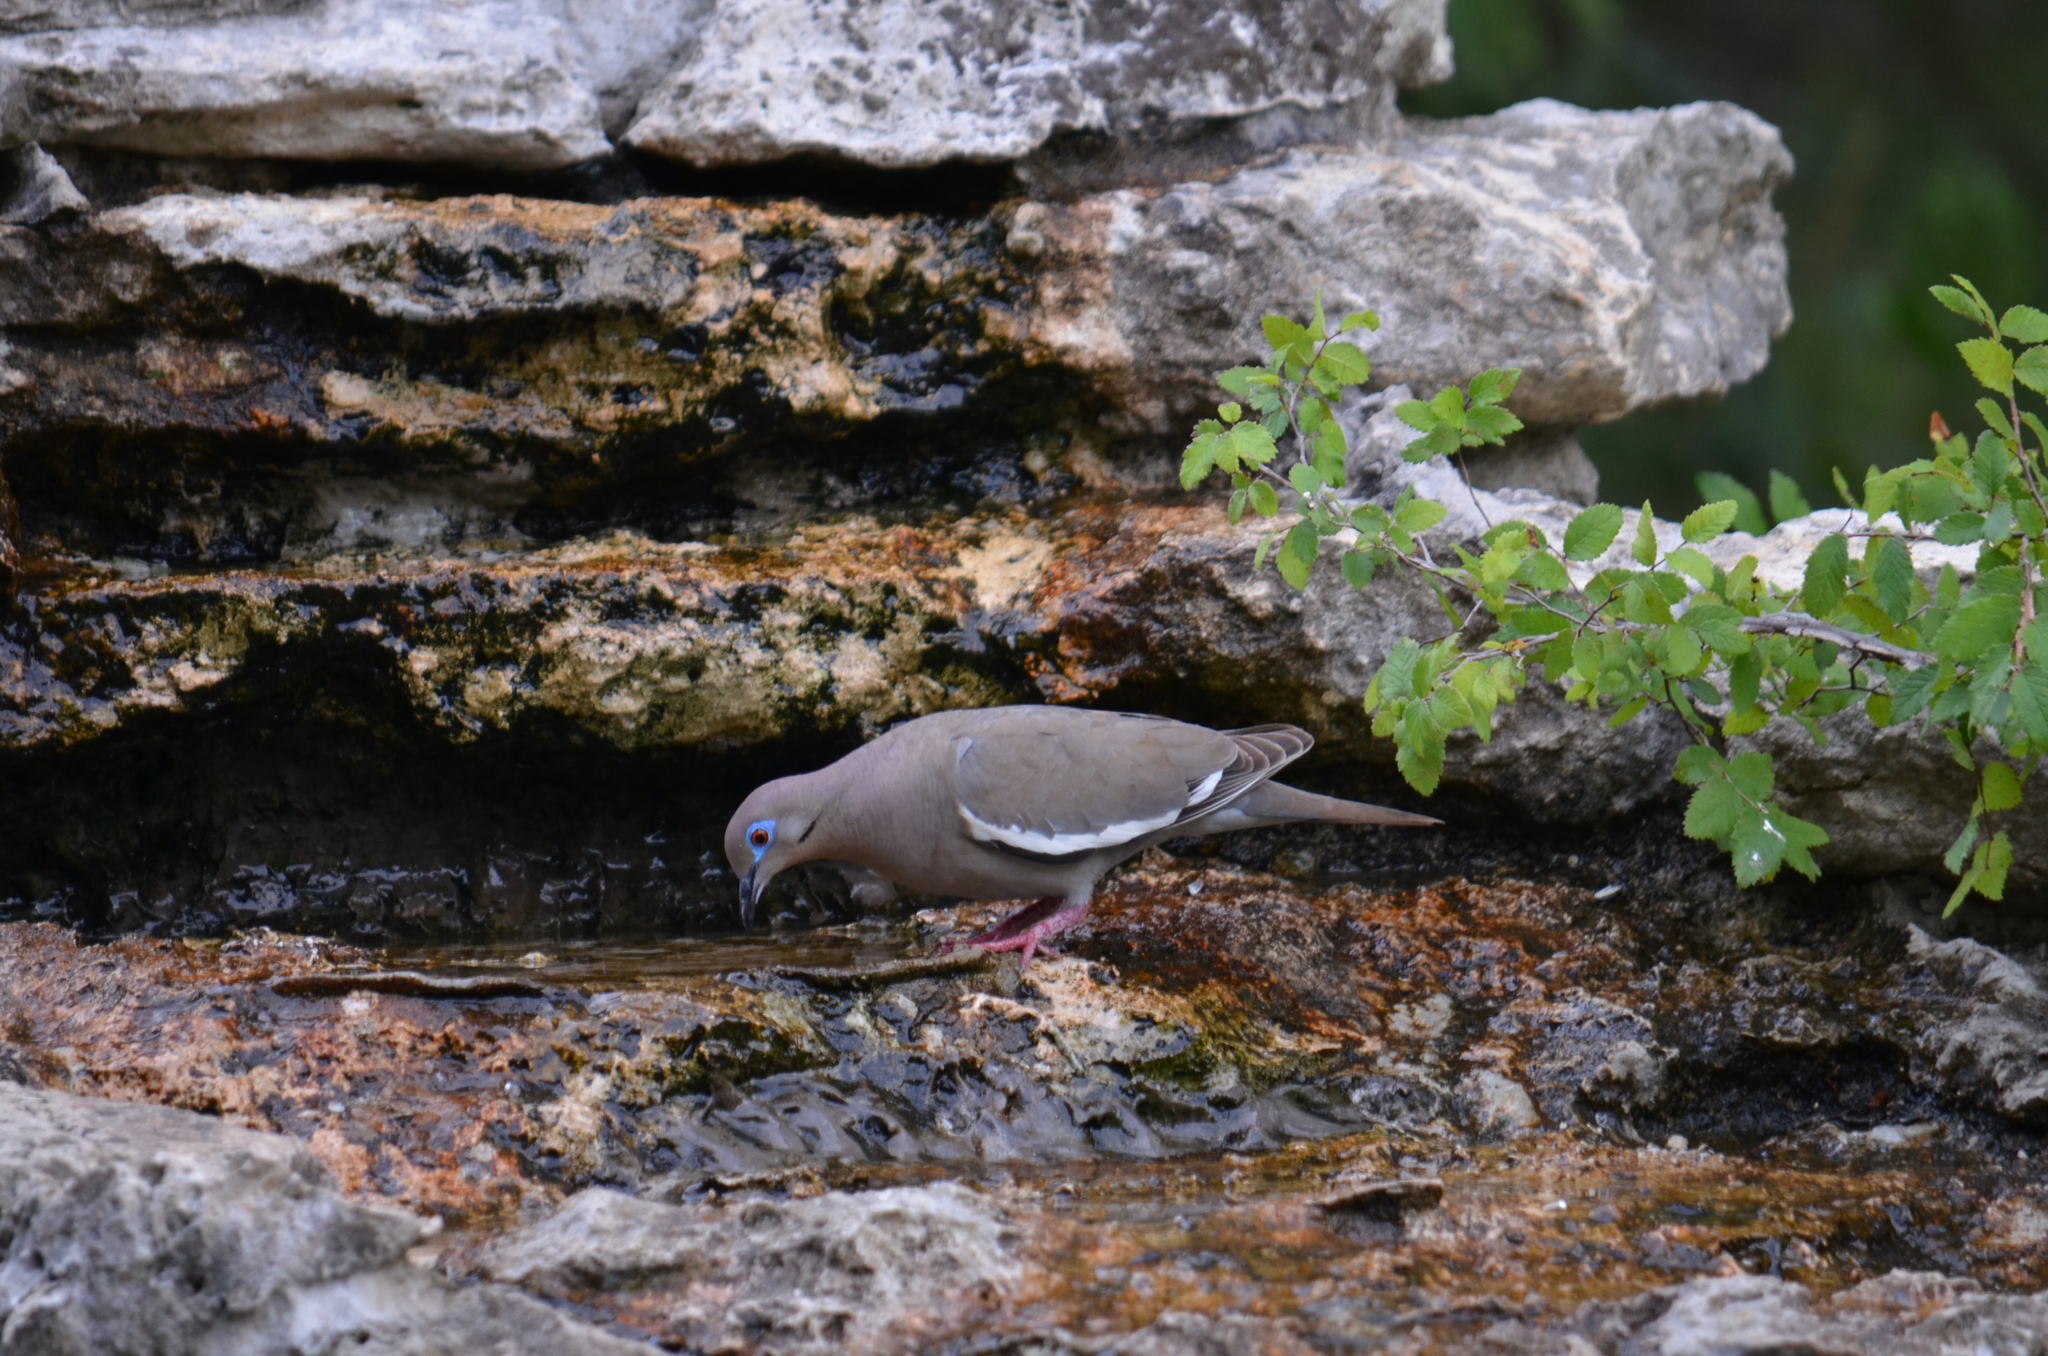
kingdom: Animalia
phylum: Chordata
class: Aves
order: Columbiformes
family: Columbidae
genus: Zenaida
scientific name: Zenaida asiatica
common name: White-winged dove
